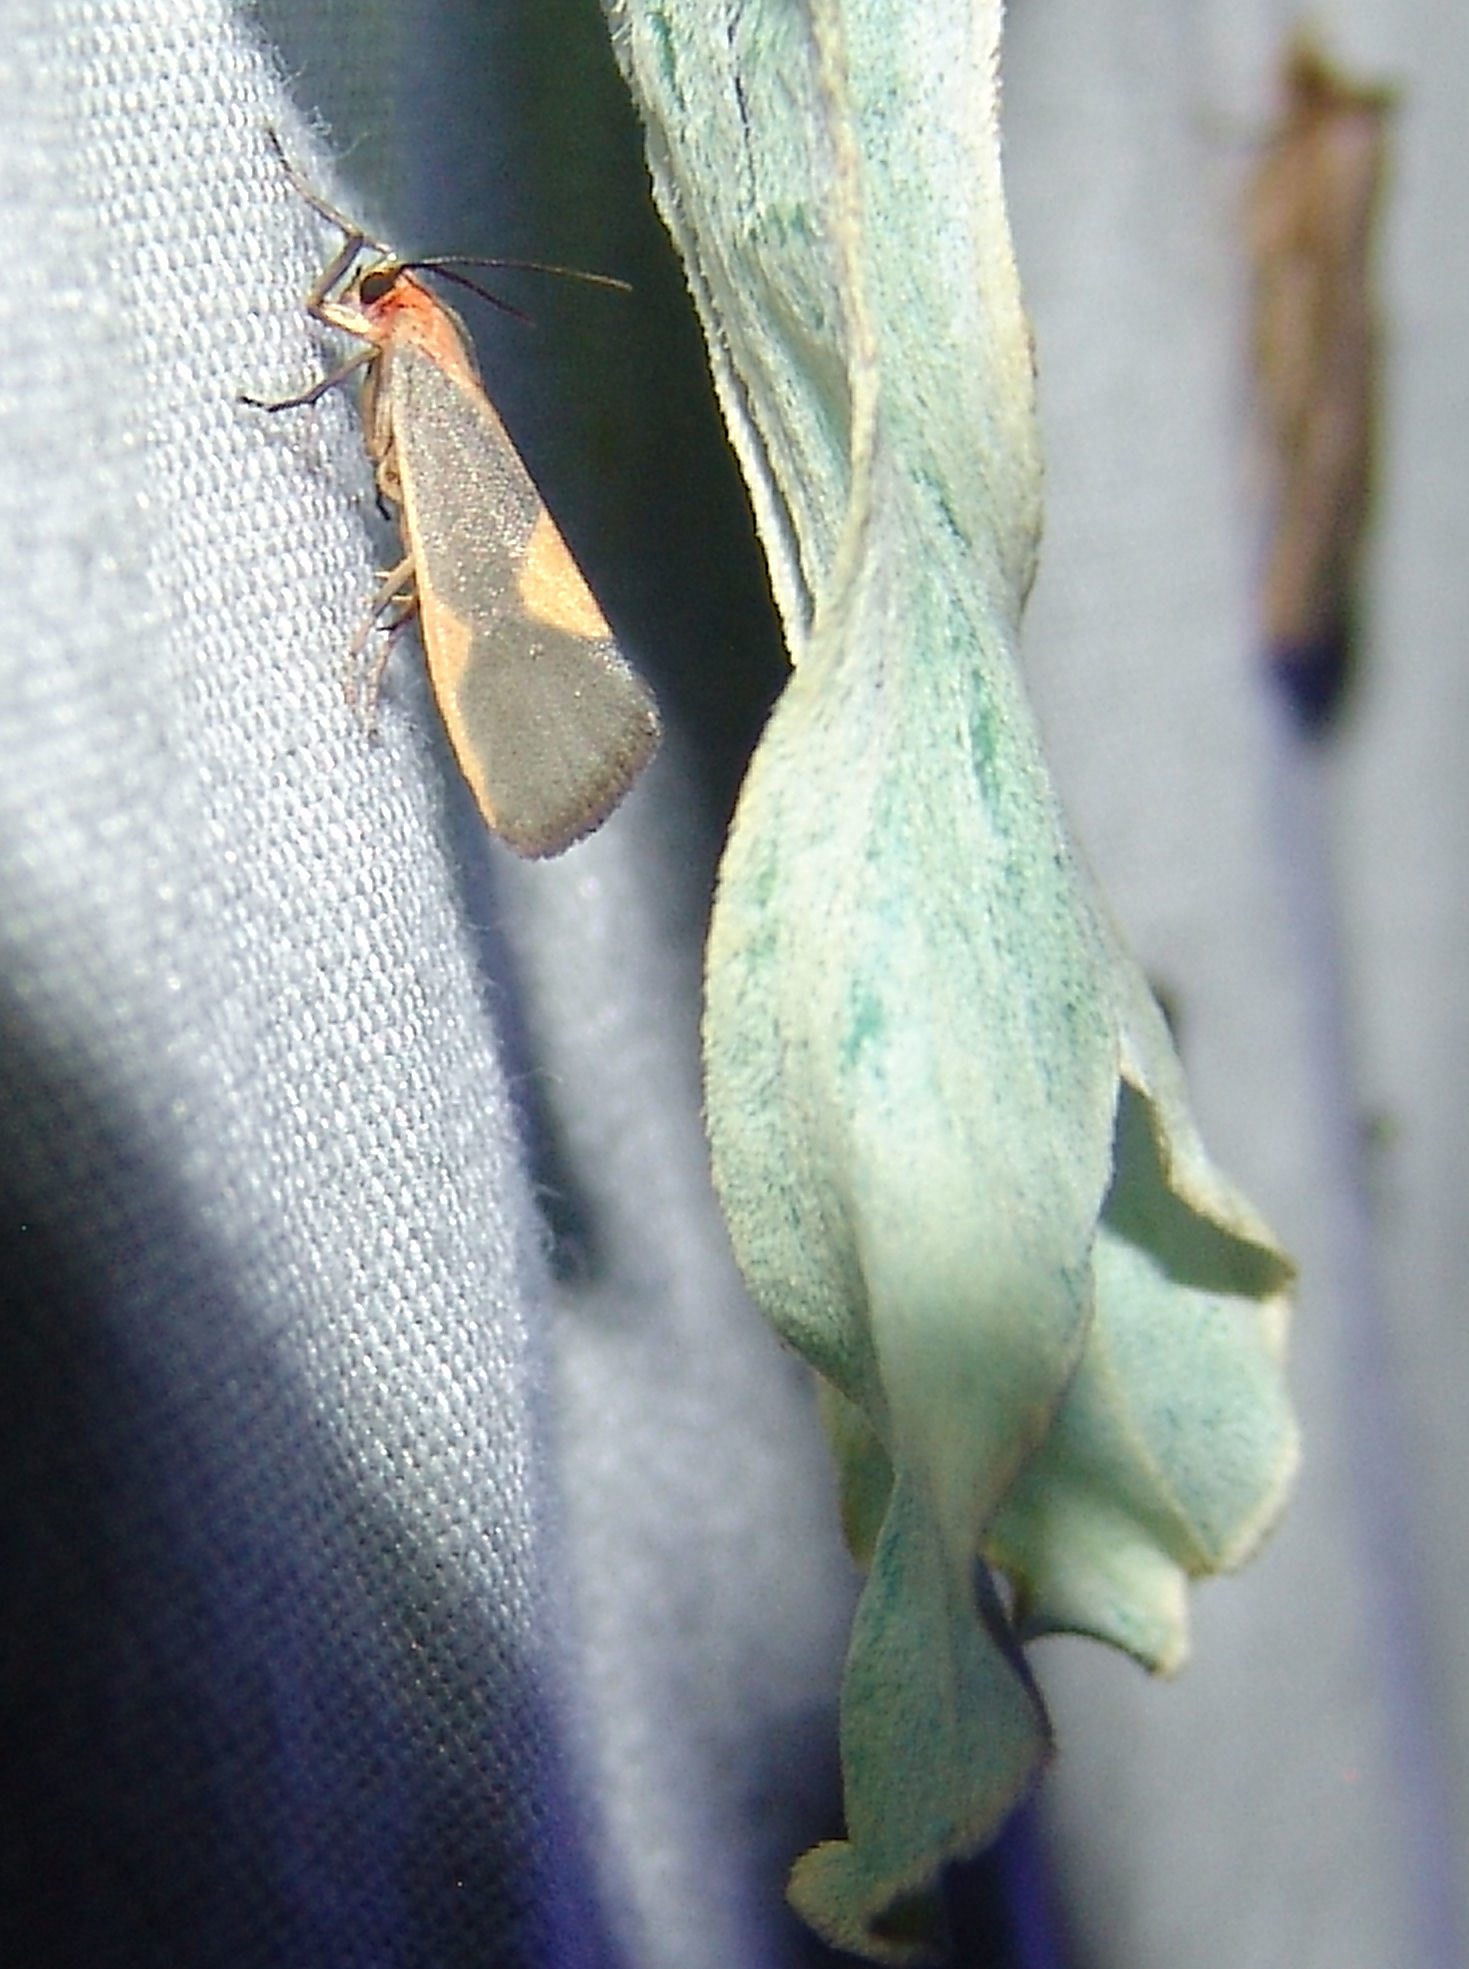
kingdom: Animalia
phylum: Arthropoda
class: Insecta
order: Lepidoptera
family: Erebidae
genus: Cisthene
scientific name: Cisthene plumbea
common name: Lead colored lichen moth
